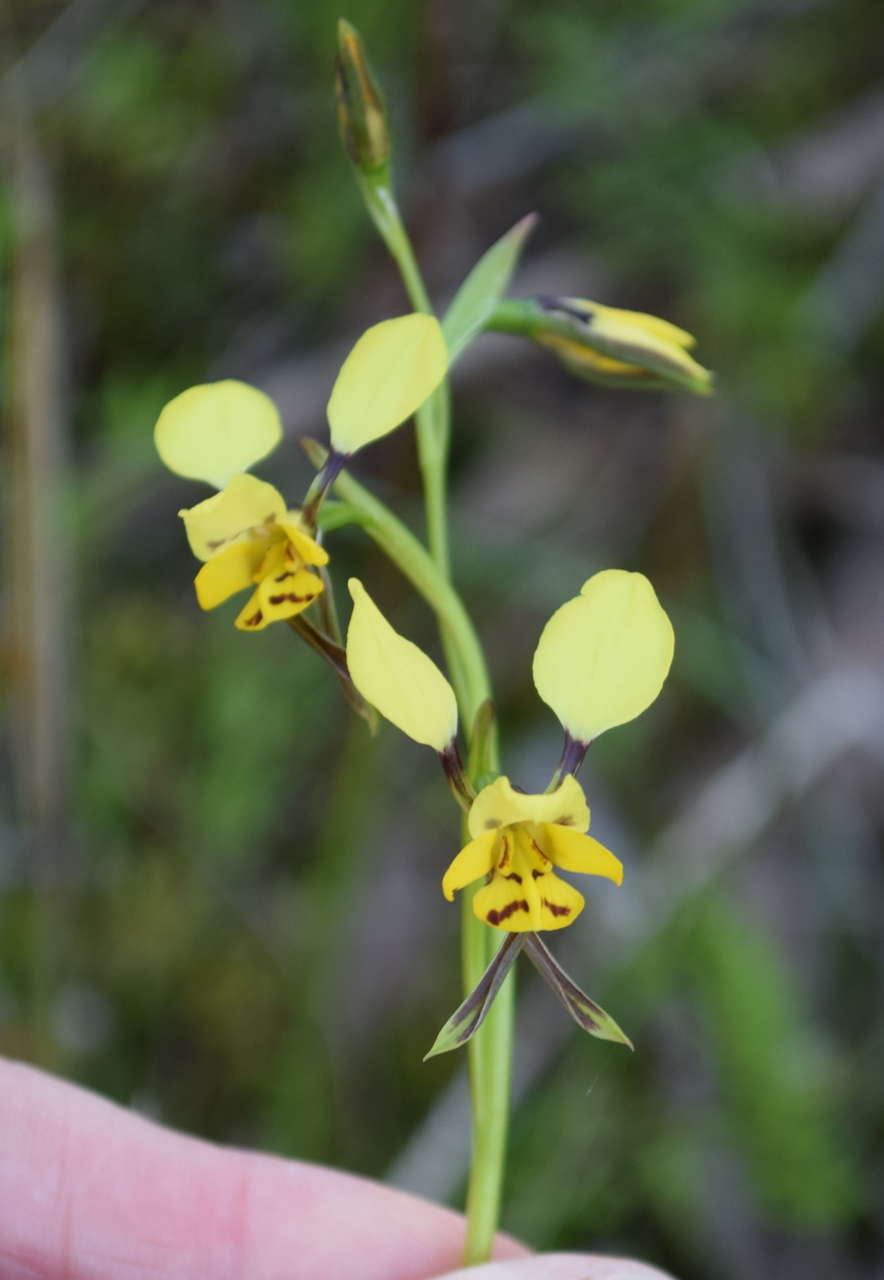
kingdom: Plantae
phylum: Tracheophyta
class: Liliopsida
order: Asparagales
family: Orchidaceae
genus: Diuris
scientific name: Diuris sulphurea
